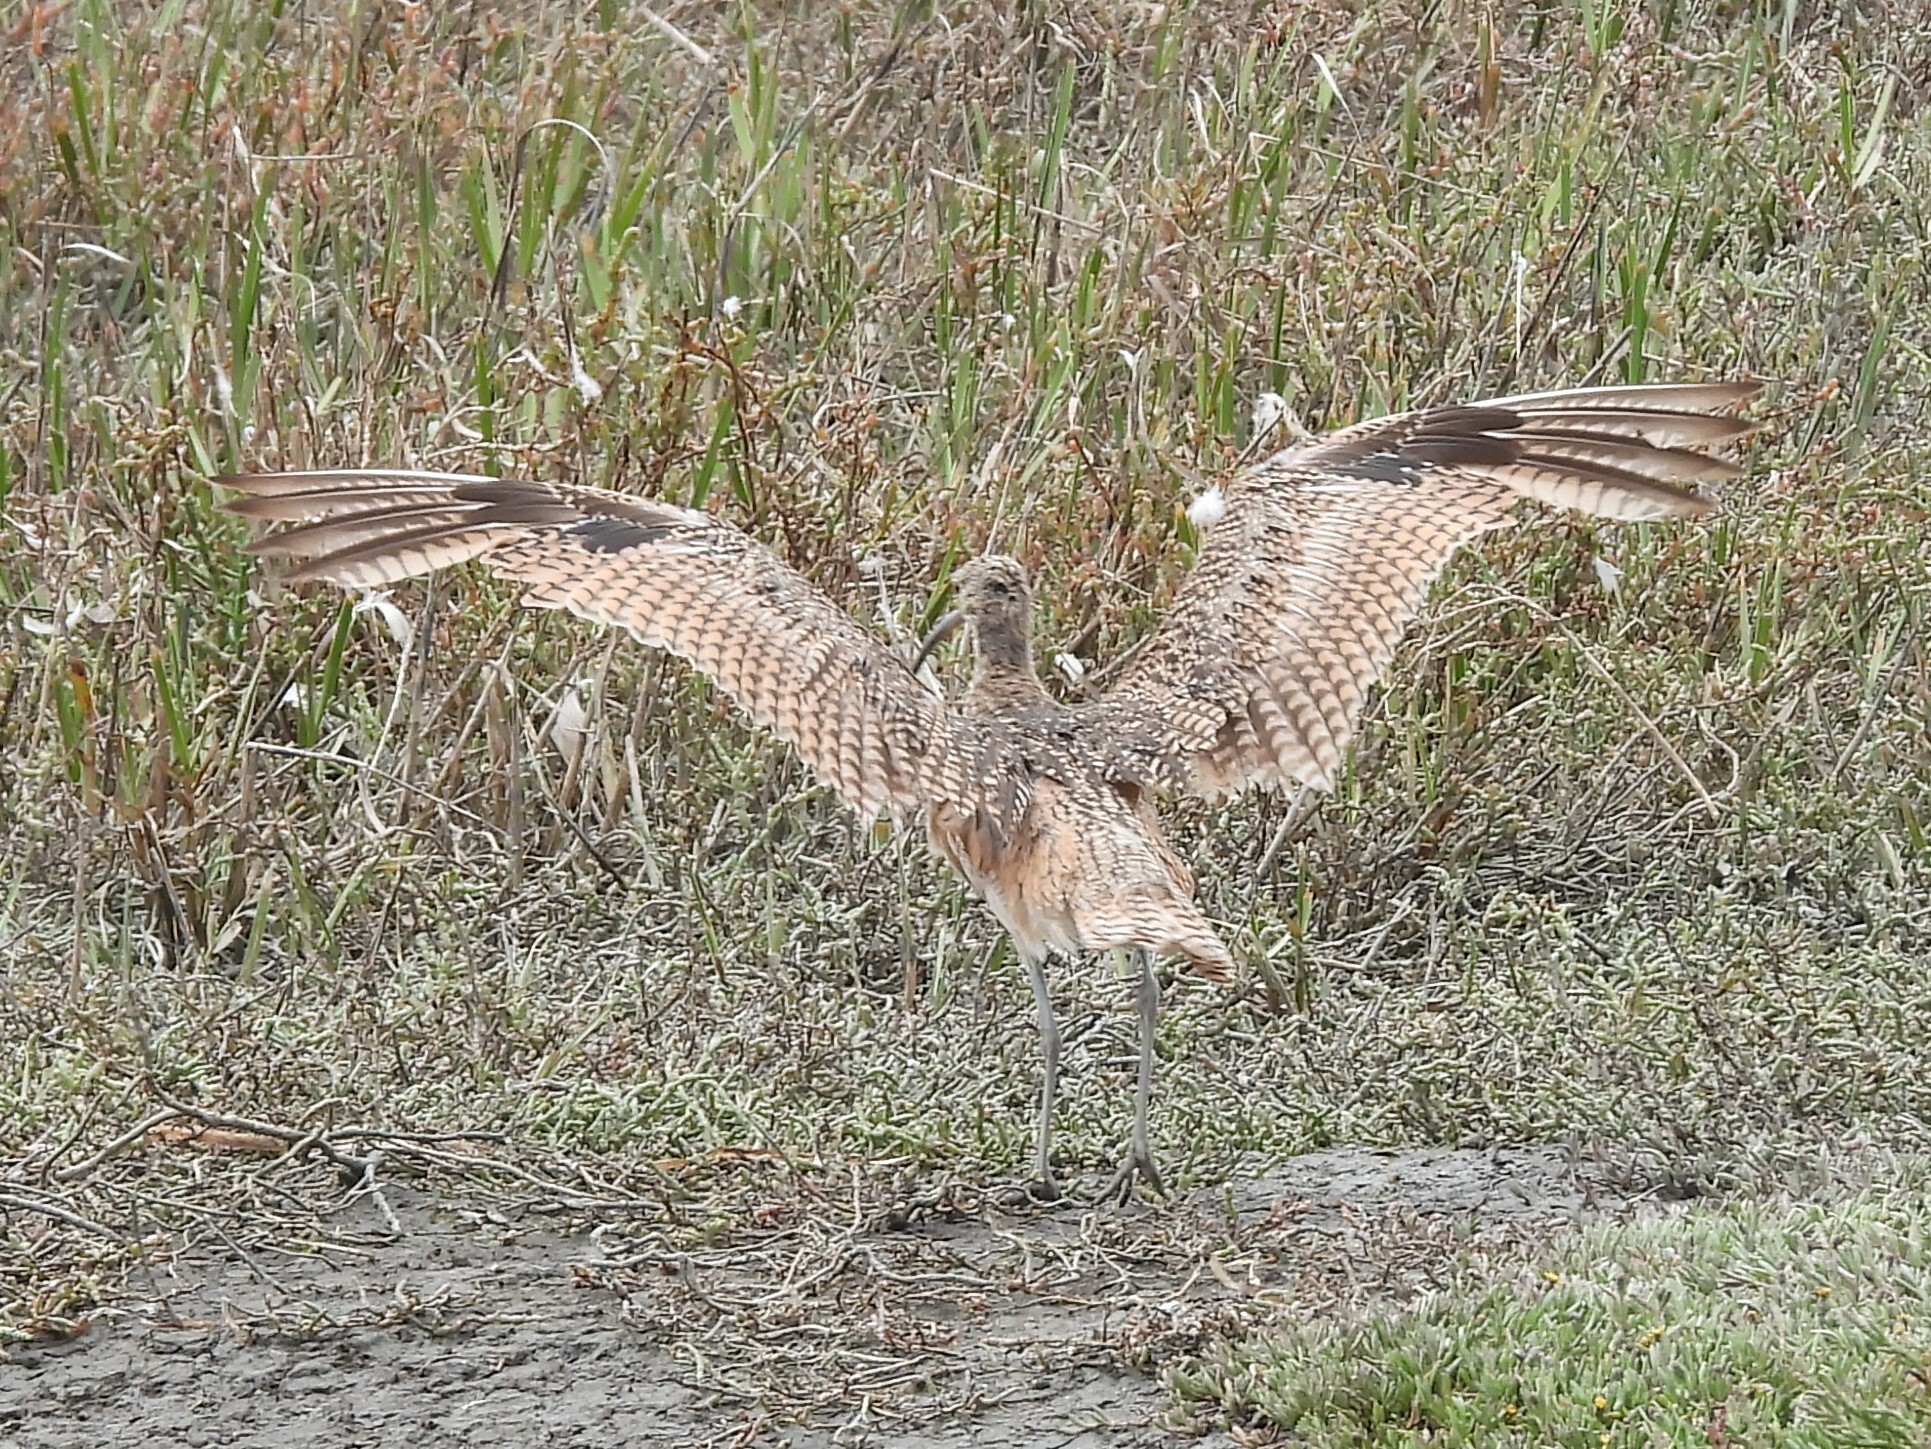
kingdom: Animalia
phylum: Chordata
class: Aves
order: Charadriiformes
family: Scolopacidae
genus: Numenius
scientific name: Numenius americanus
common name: Long-billed curlew
